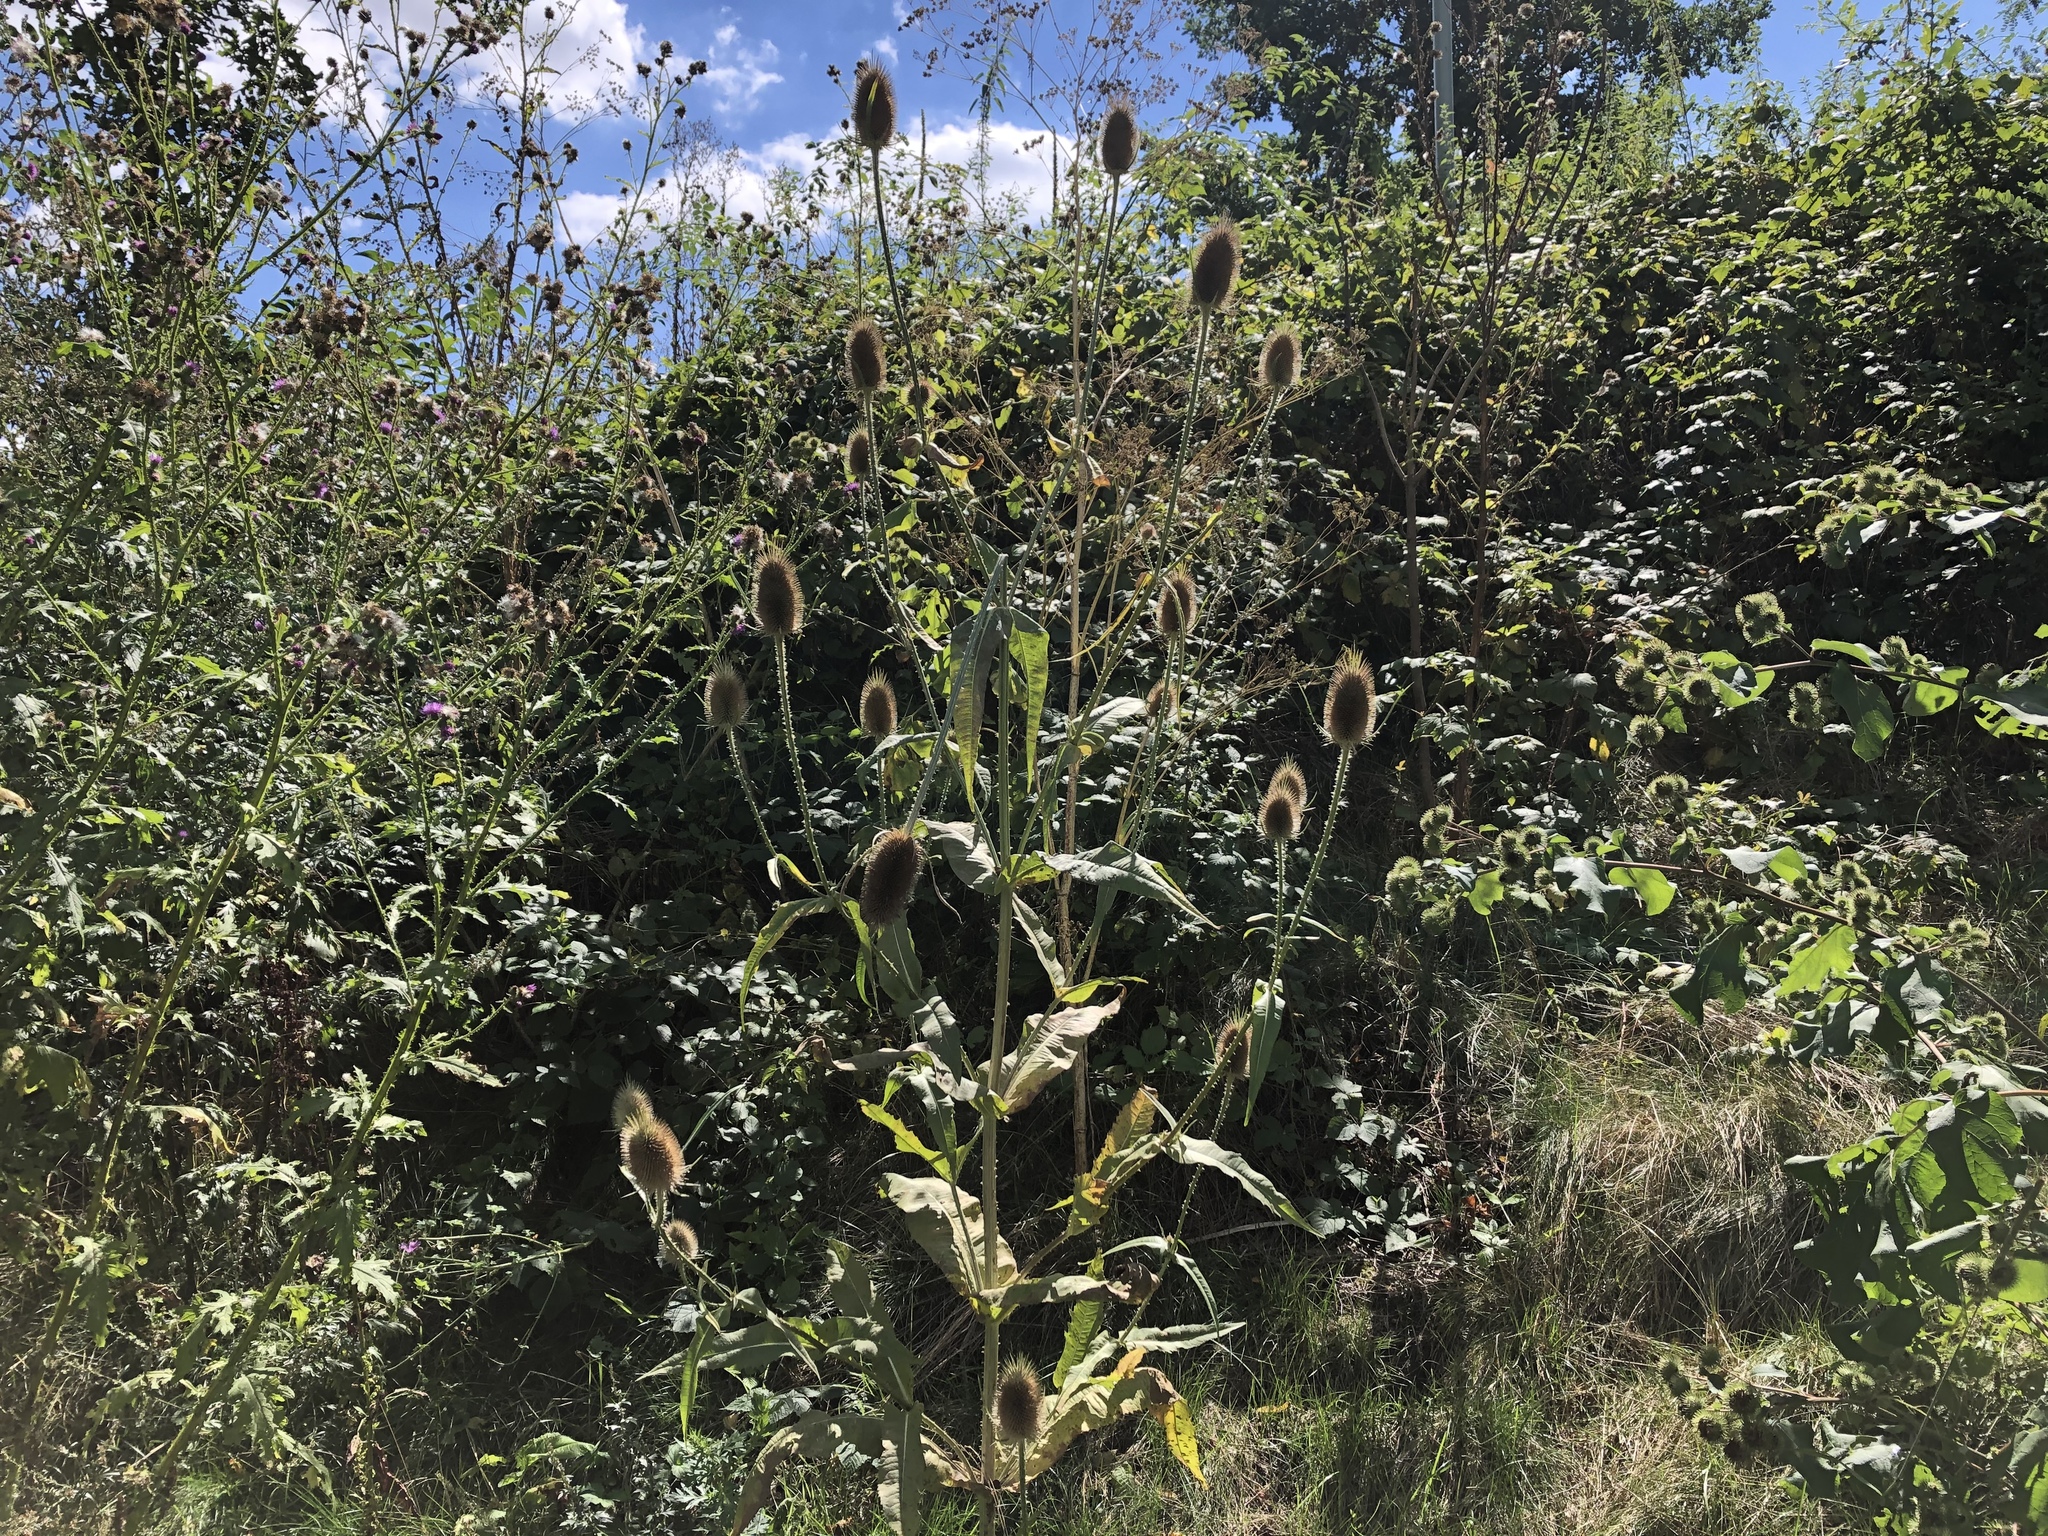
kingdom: Plantae
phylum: Tracheophyta
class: Magnoliopsida
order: Dipsacales
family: Caprifoliaceae
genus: Dipsacus
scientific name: Dipsacus fullonum
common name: Teasel
